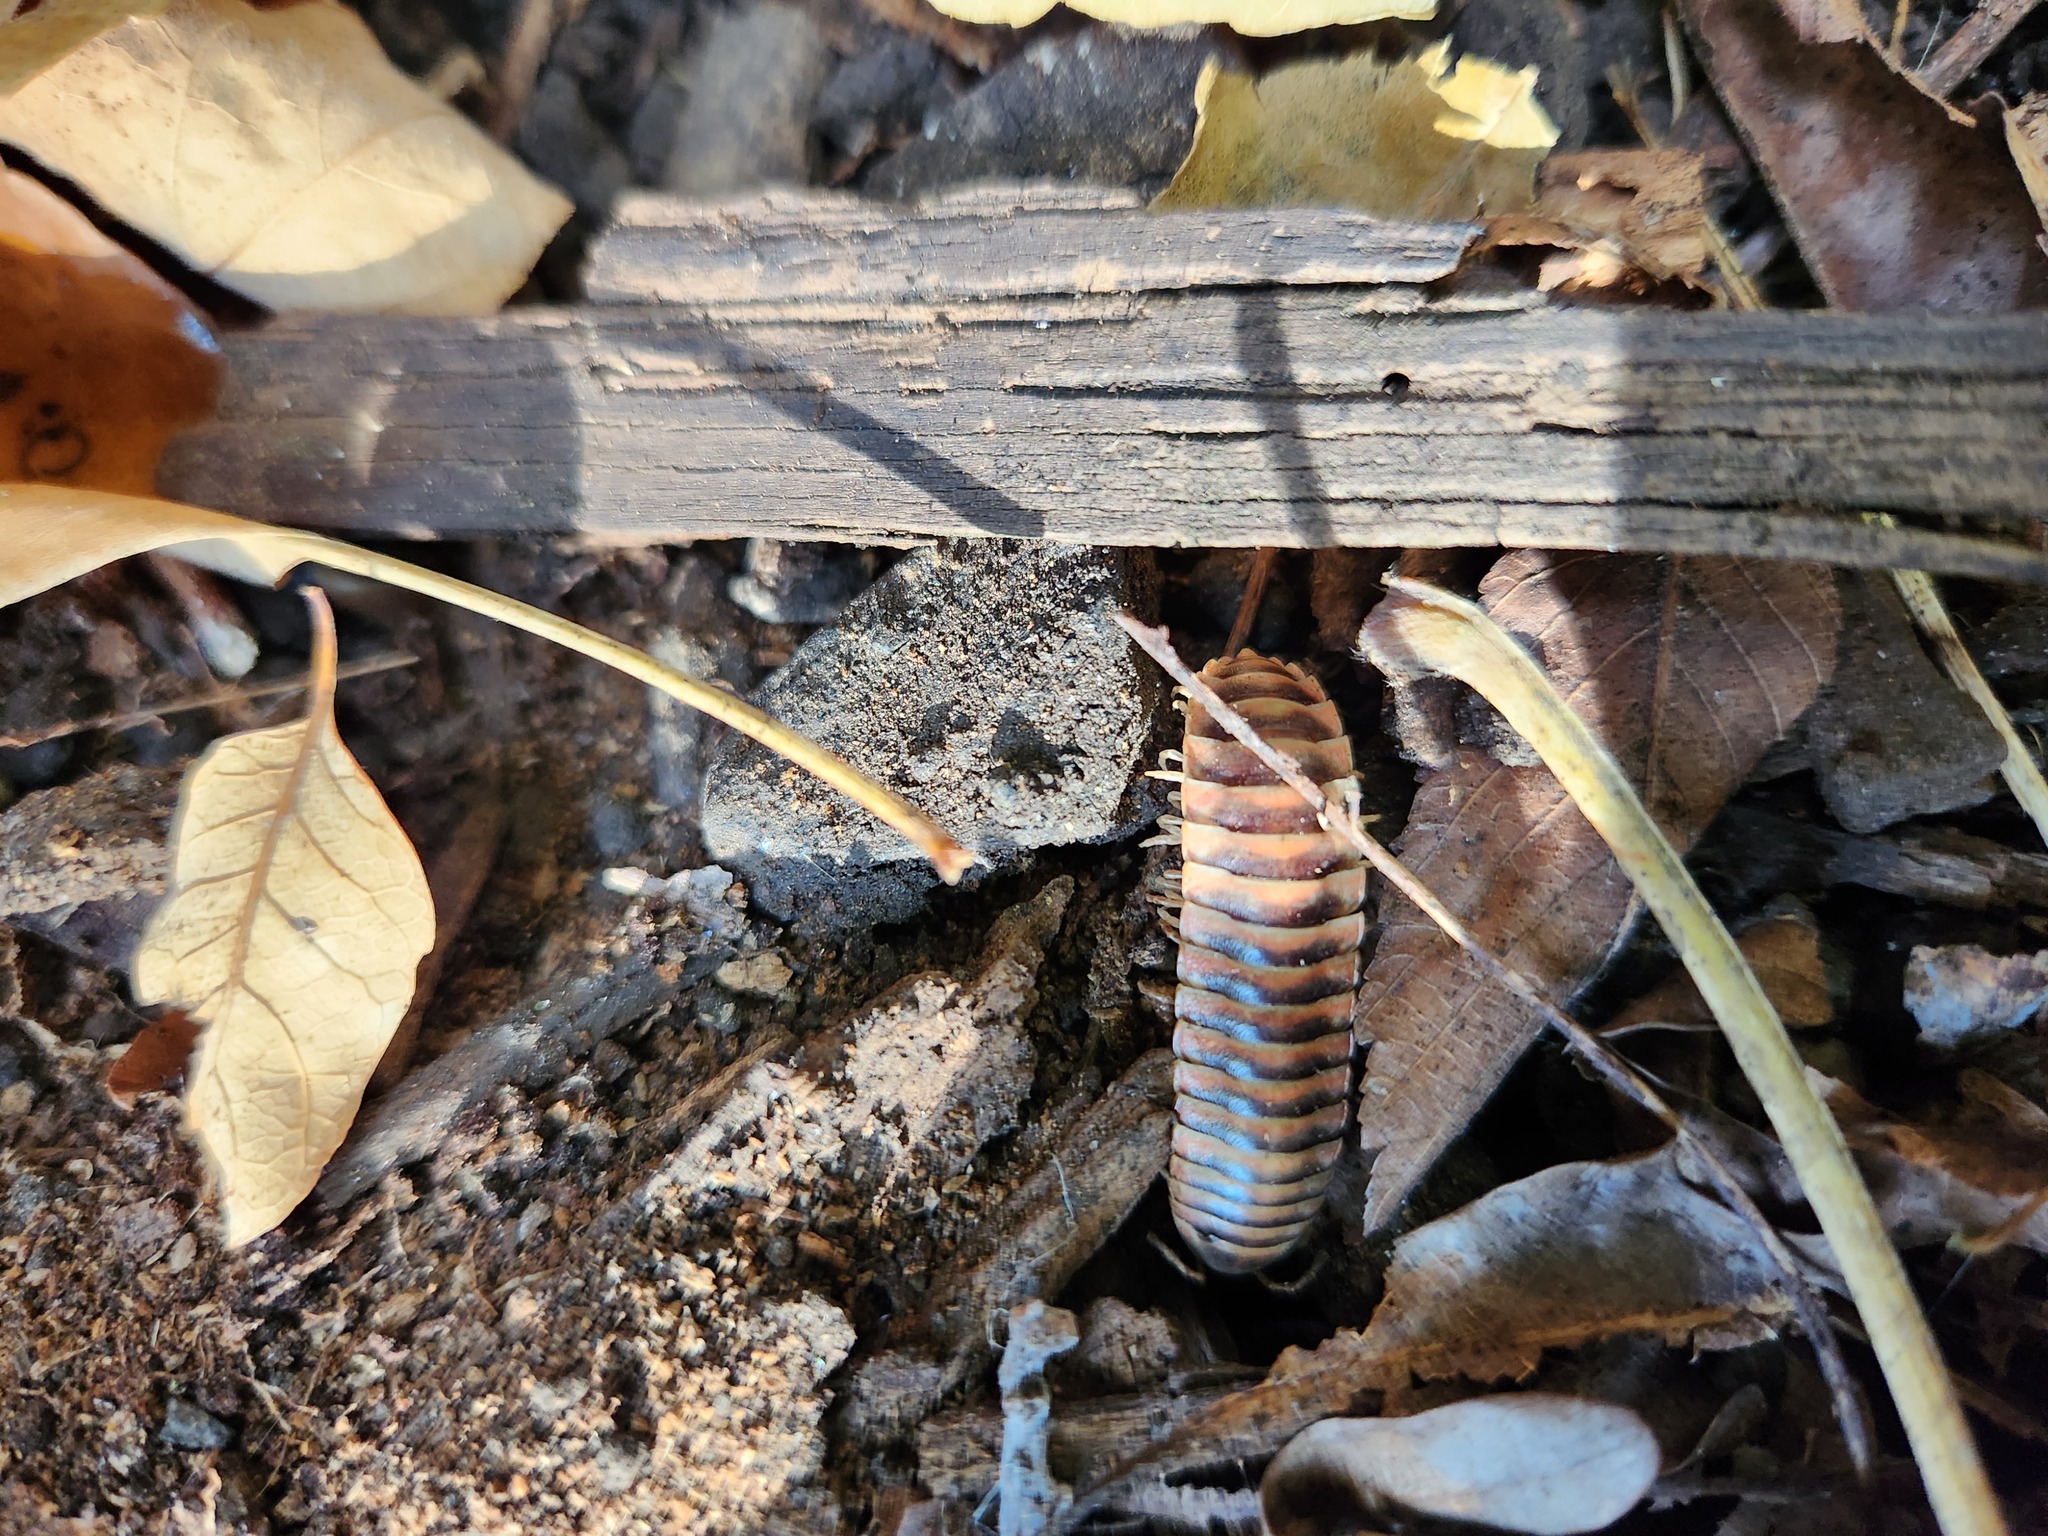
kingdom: Animalia
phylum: Arthropoda
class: Diplopoda
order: Polydesmida
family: Xystodesmidae
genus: Cherokia
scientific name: Cherokia georgiana
